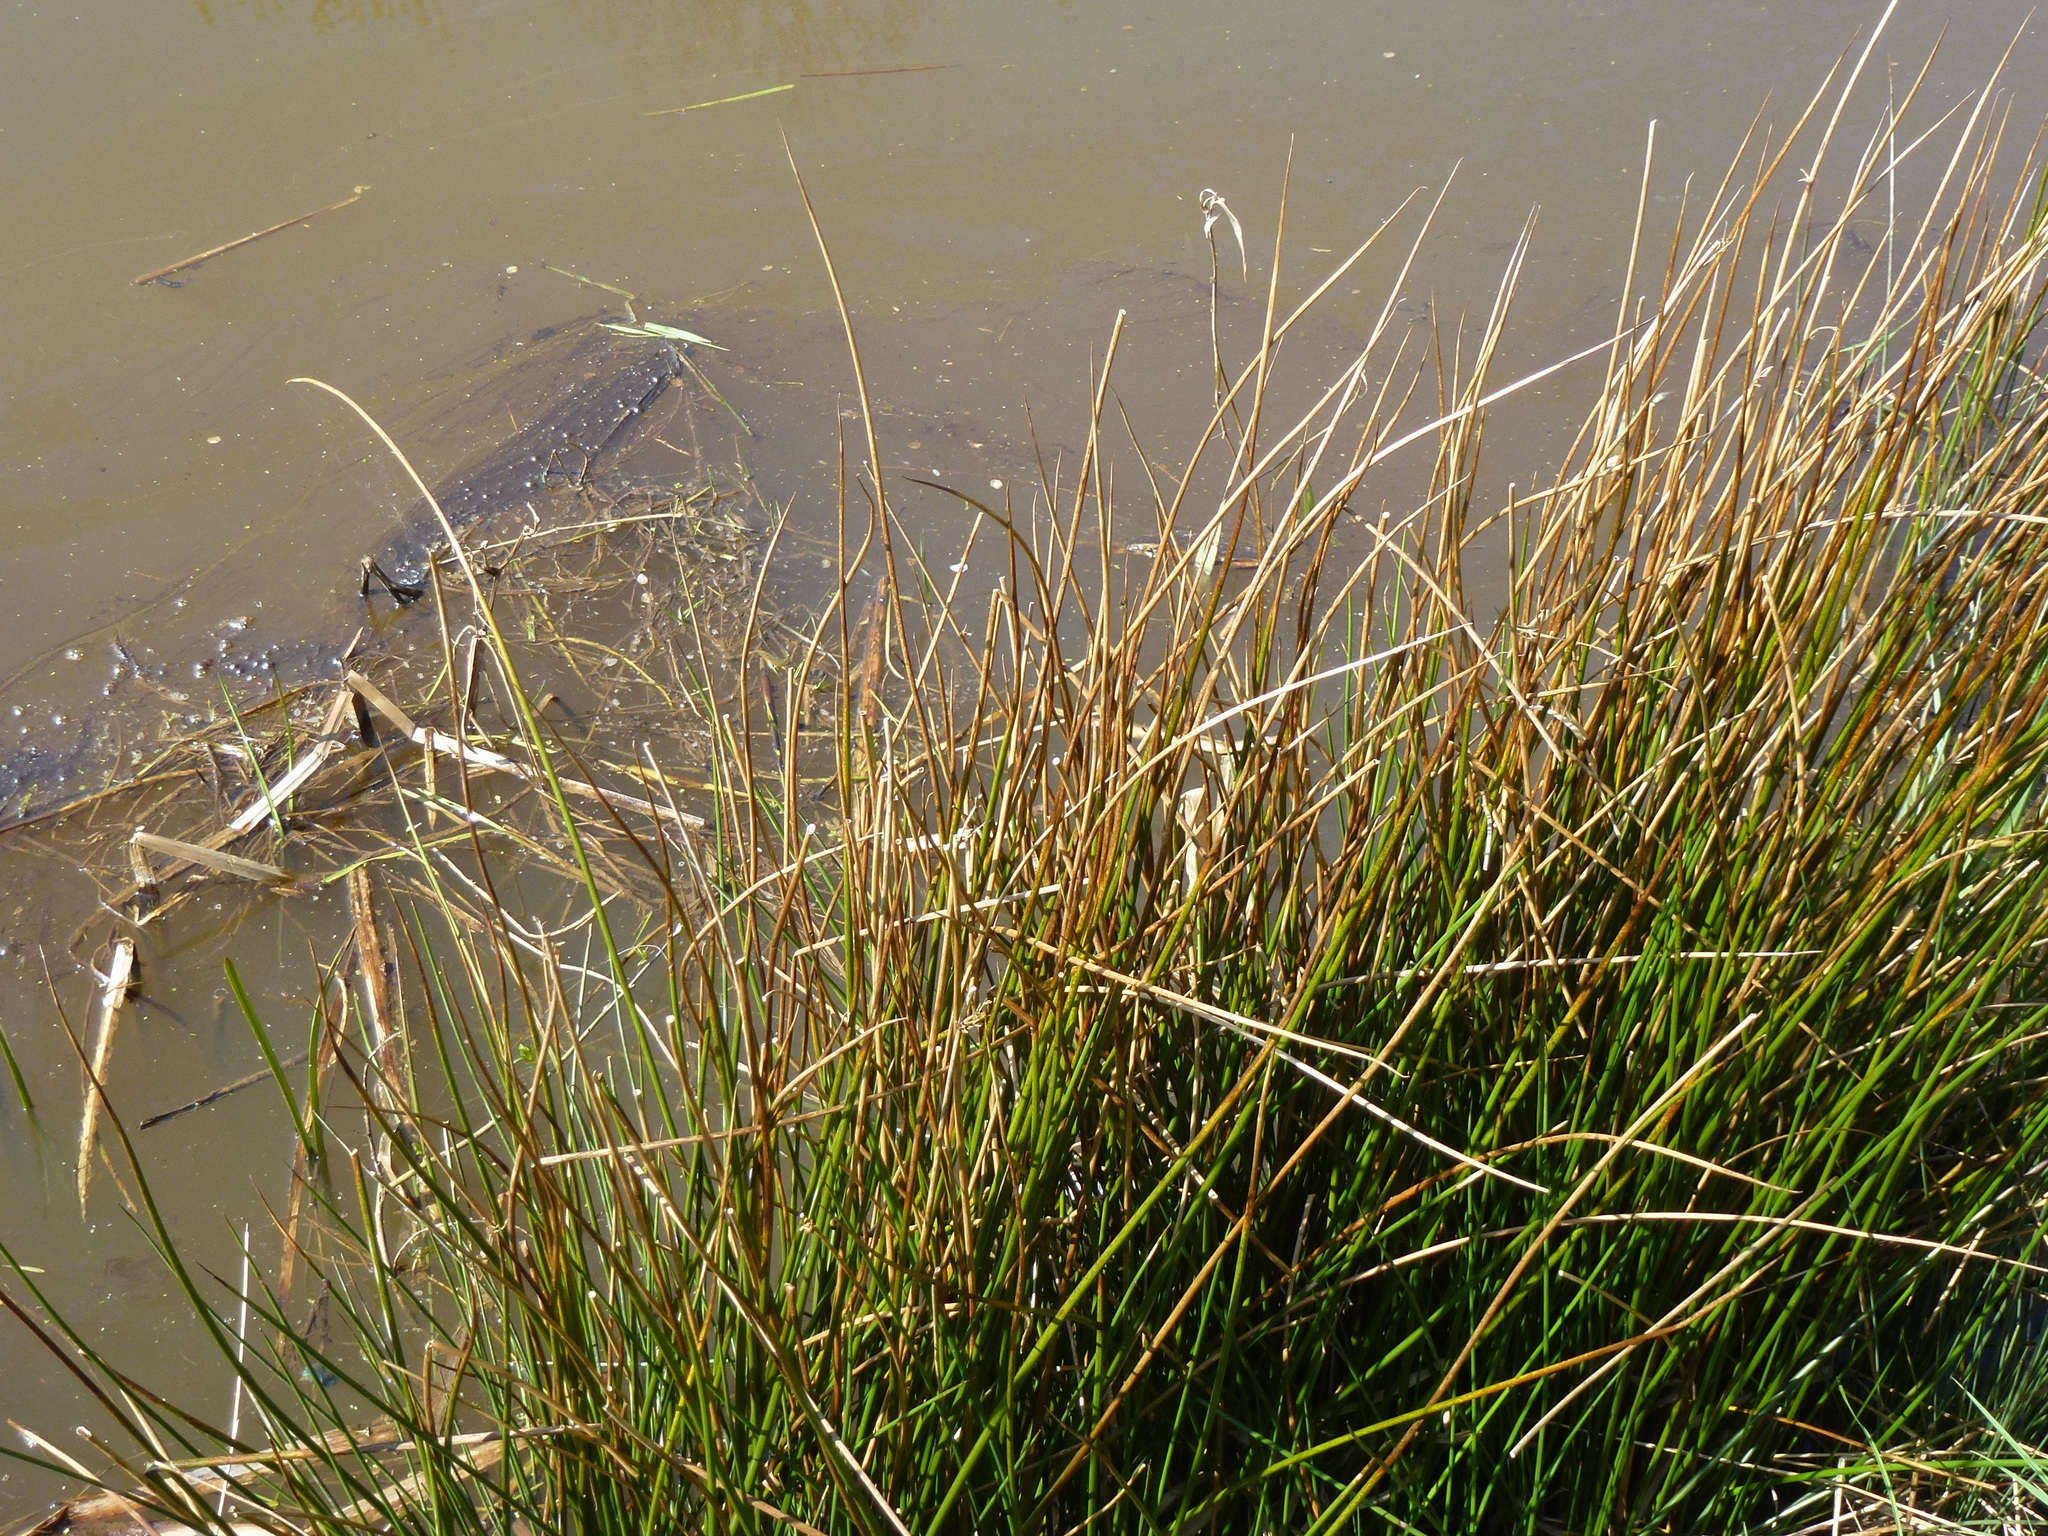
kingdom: Plantae
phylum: Tracheophyta
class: Liliopsida
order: Poales
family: Juncaceae
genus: Juncus
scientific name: Juncus effusus
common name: Soft rush
